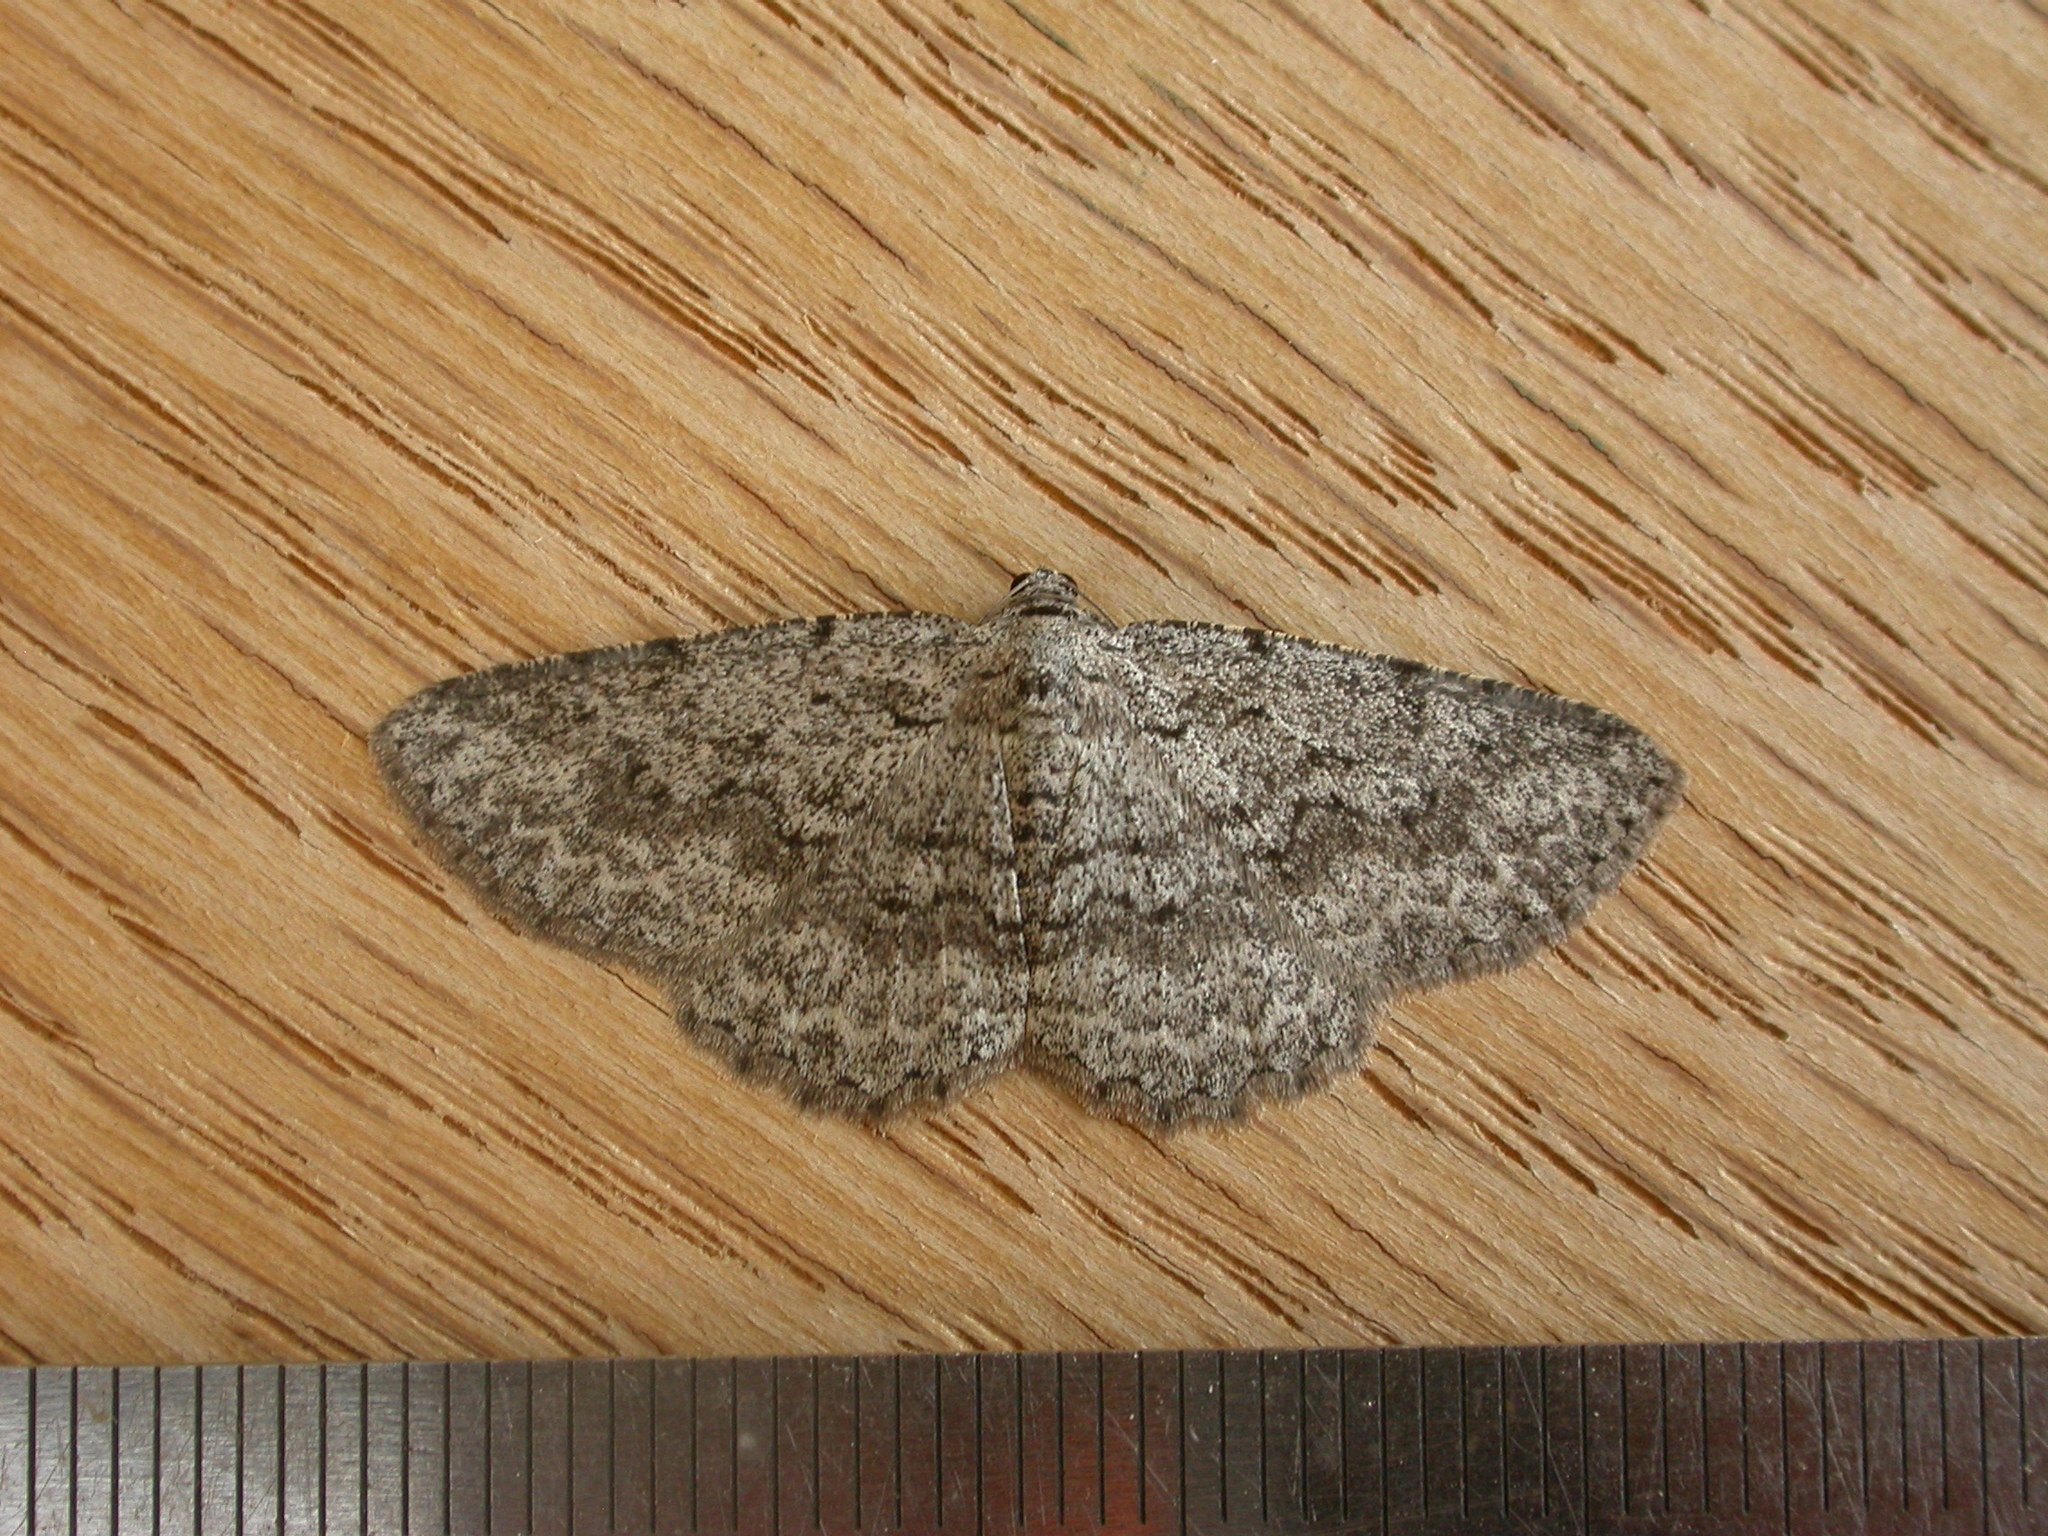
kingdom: Animalia
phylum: Arthropoda
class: Insecta
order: Lepidoptera
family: Geometridae
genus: Psilosticha
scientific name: Psilosticha absorpta
